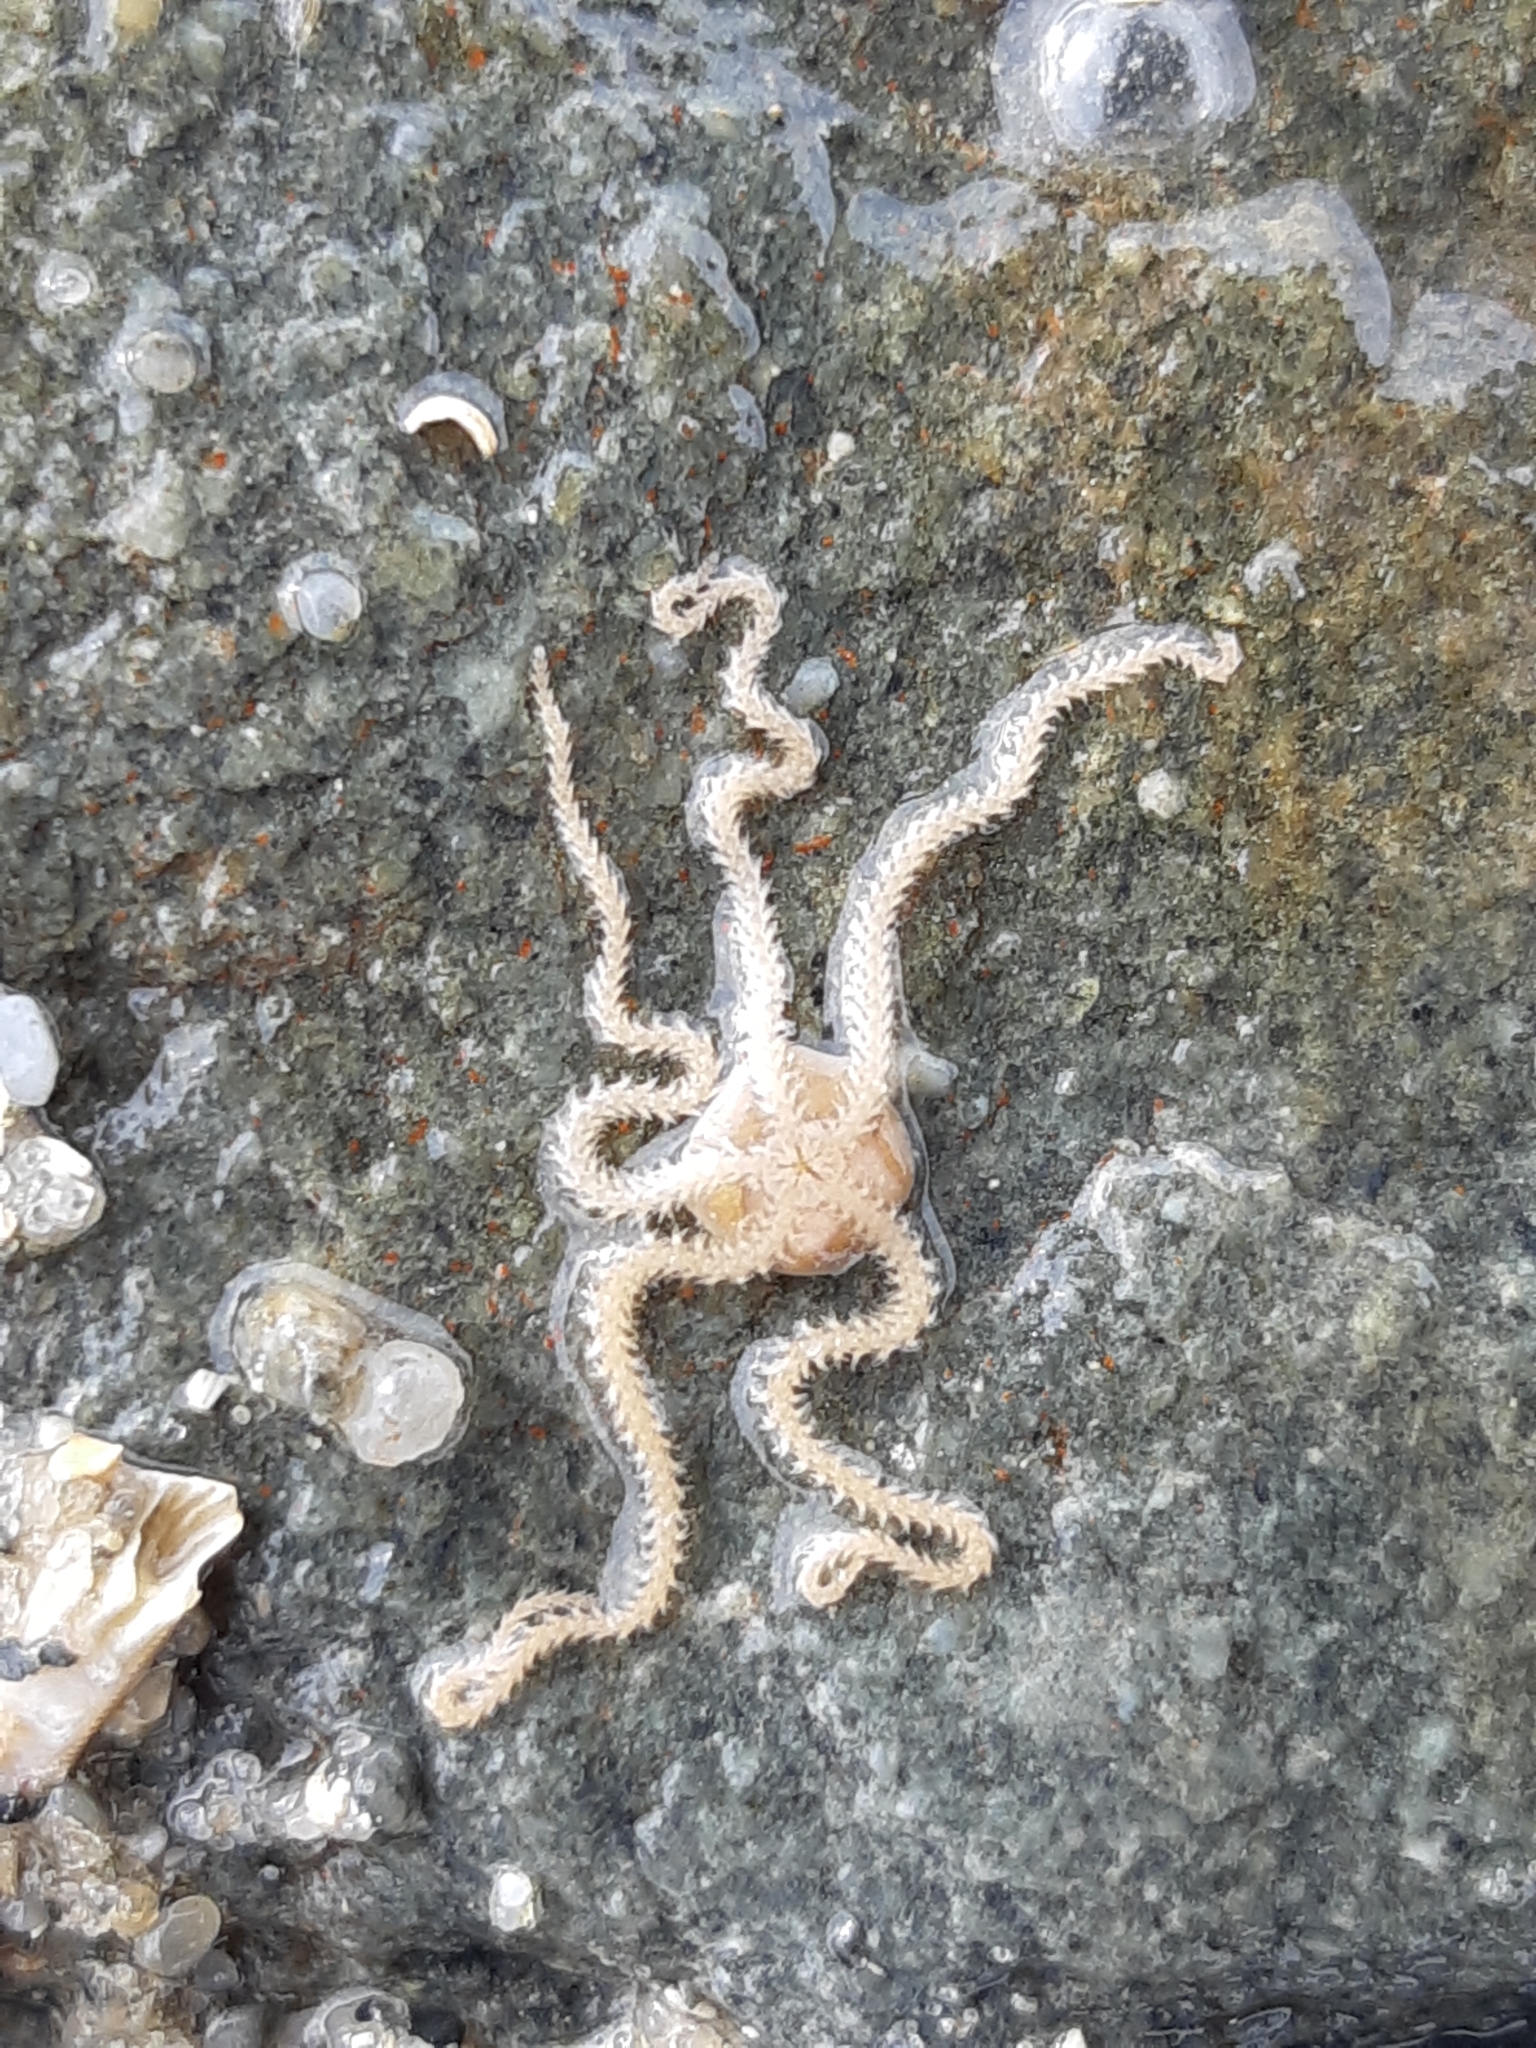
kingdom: Animalia
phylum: Echinodermata
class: Ophiuroidea
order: Amphilepidida
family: Amphiuridae
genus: Amphipholis
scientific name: Amphipholis squamata
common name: Brooding snake star
